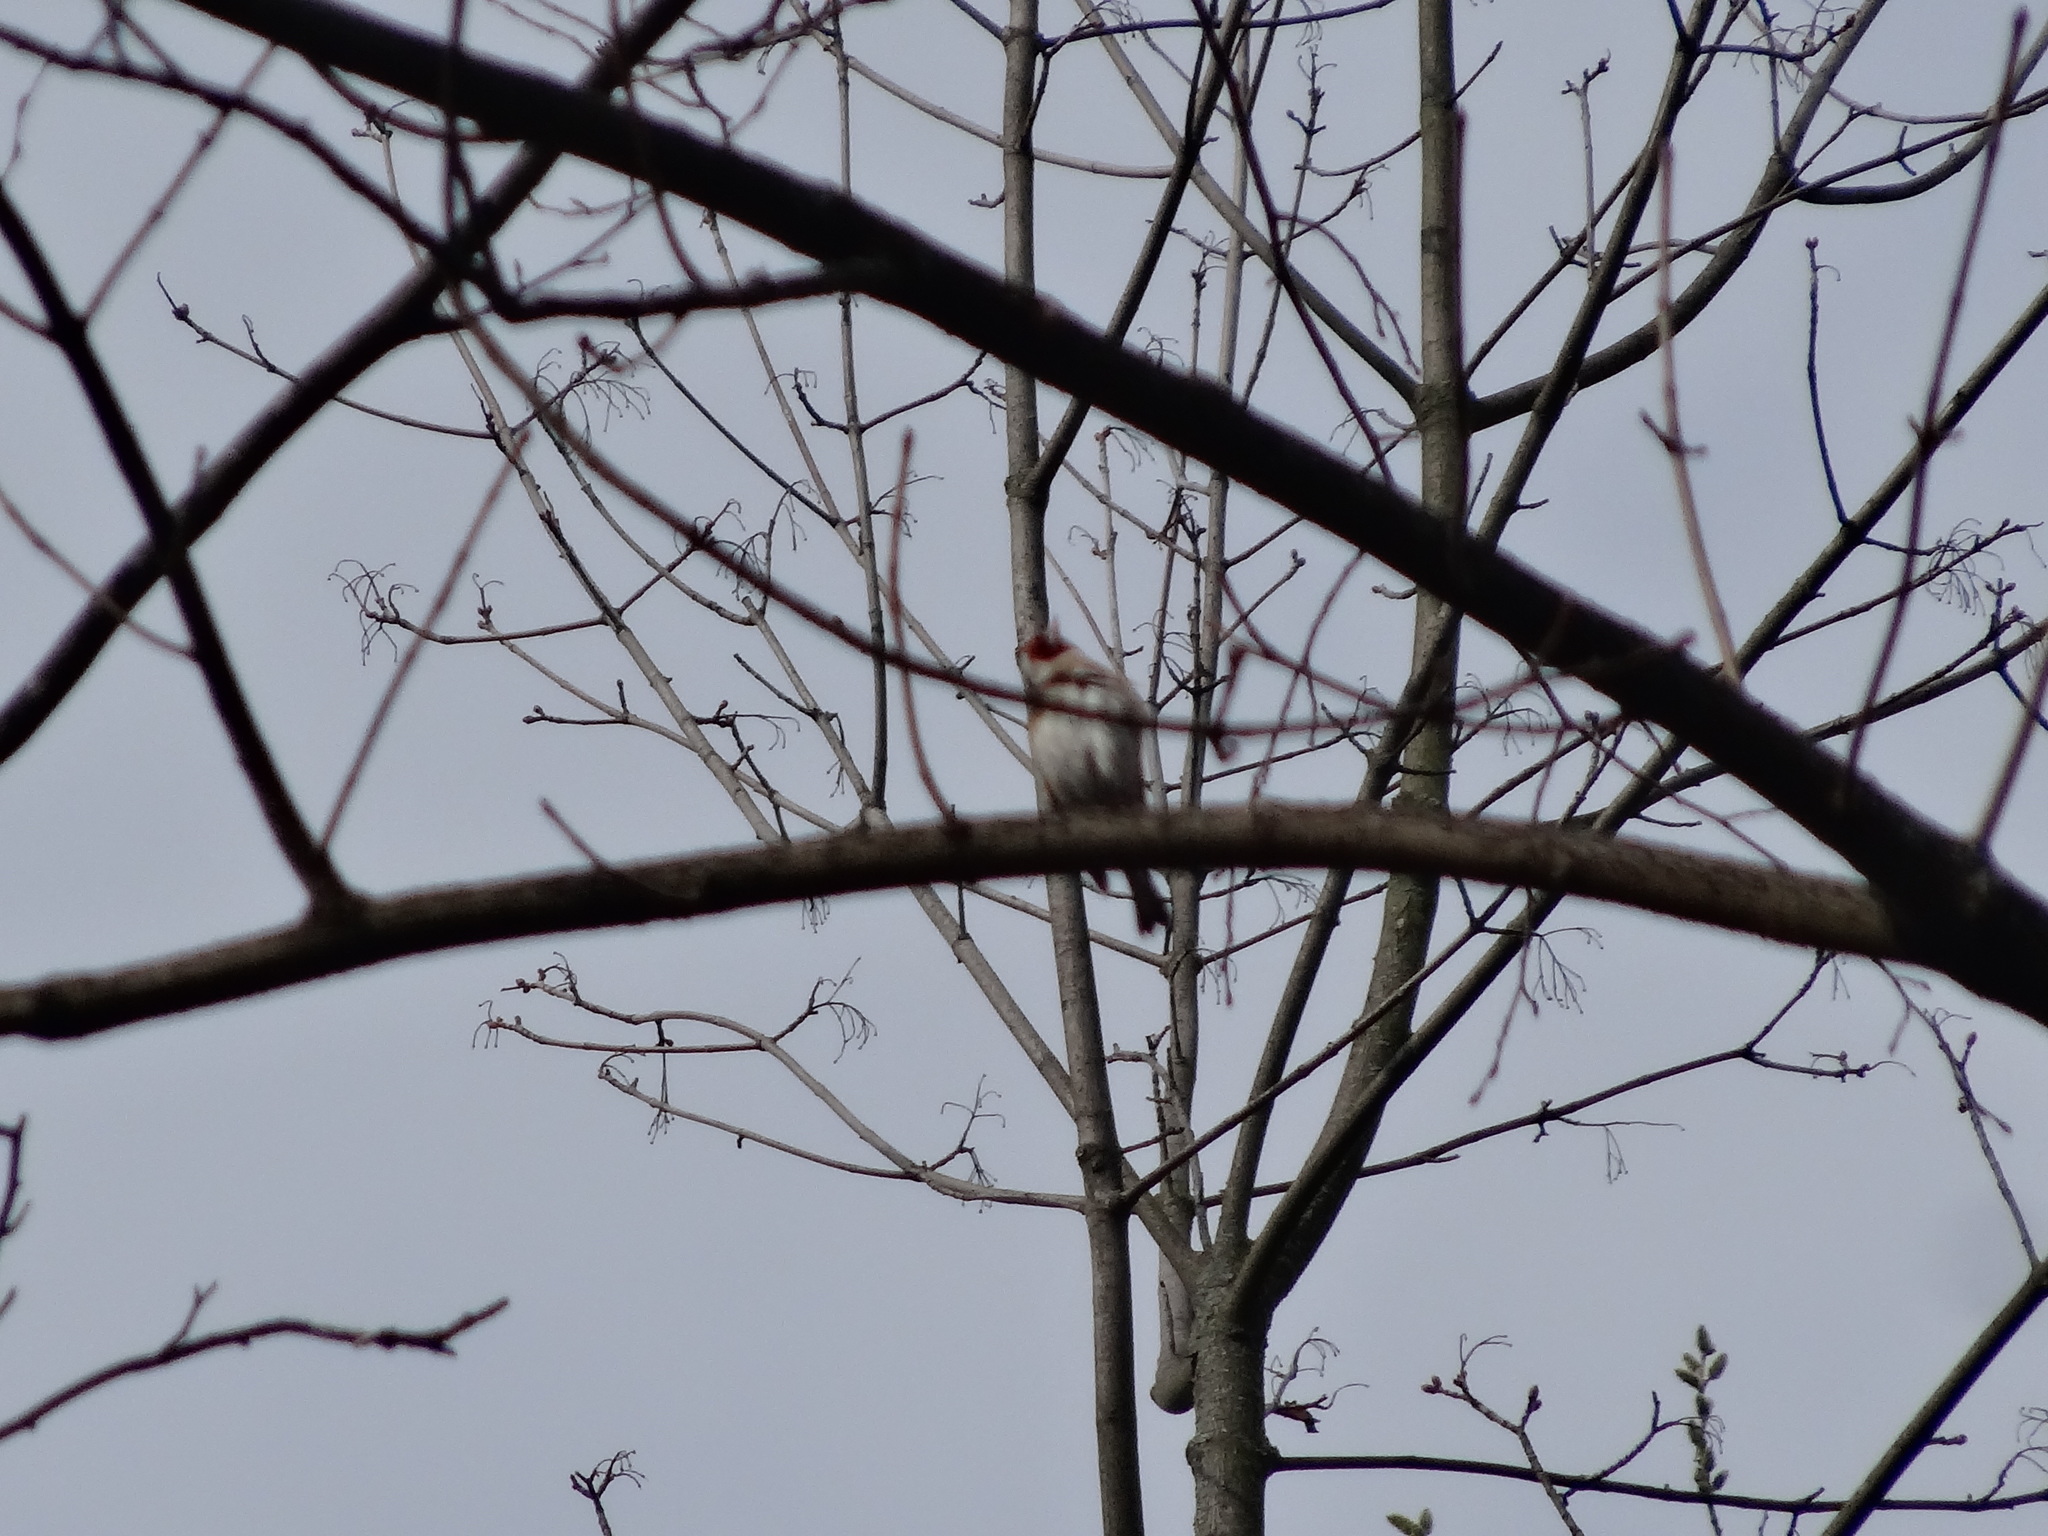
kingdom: Animalia
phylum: Chordata
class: Aves
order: Passeriformes
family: Fringillidae
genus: Carduelis
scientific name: Carduelis carduelis
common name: European goldfinch
